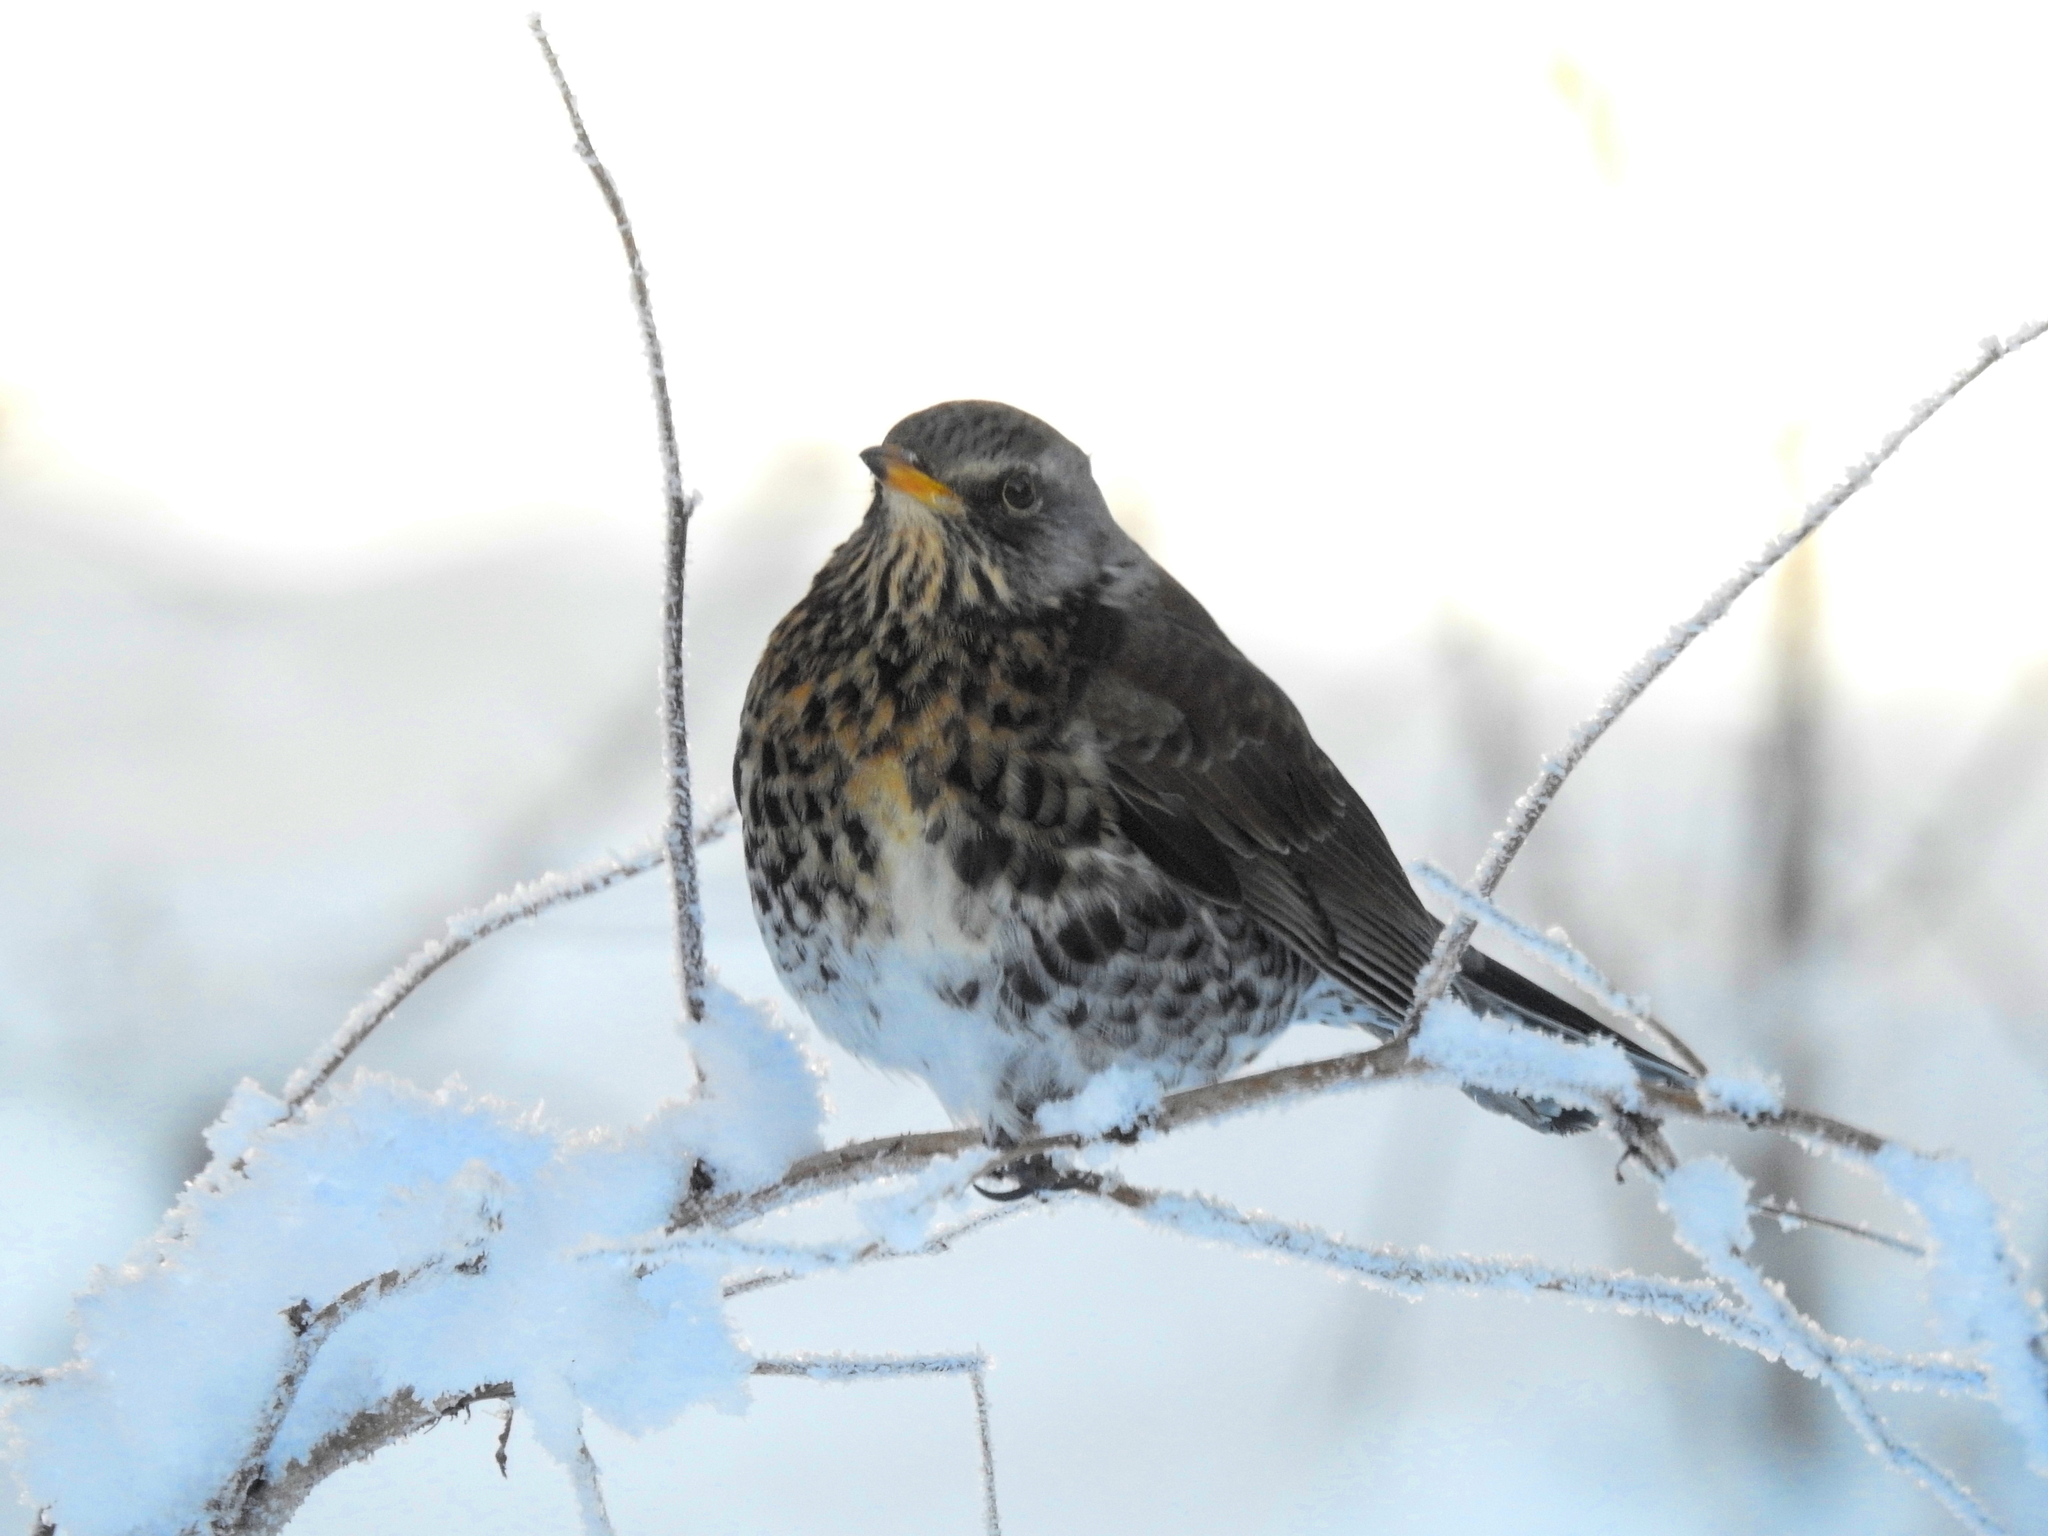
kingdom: Animalia
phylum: Chordata
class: Aves
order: Passeriformes
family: Turdidae
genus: Turdus
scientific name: Turdus pilaris
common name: Fieldfare
